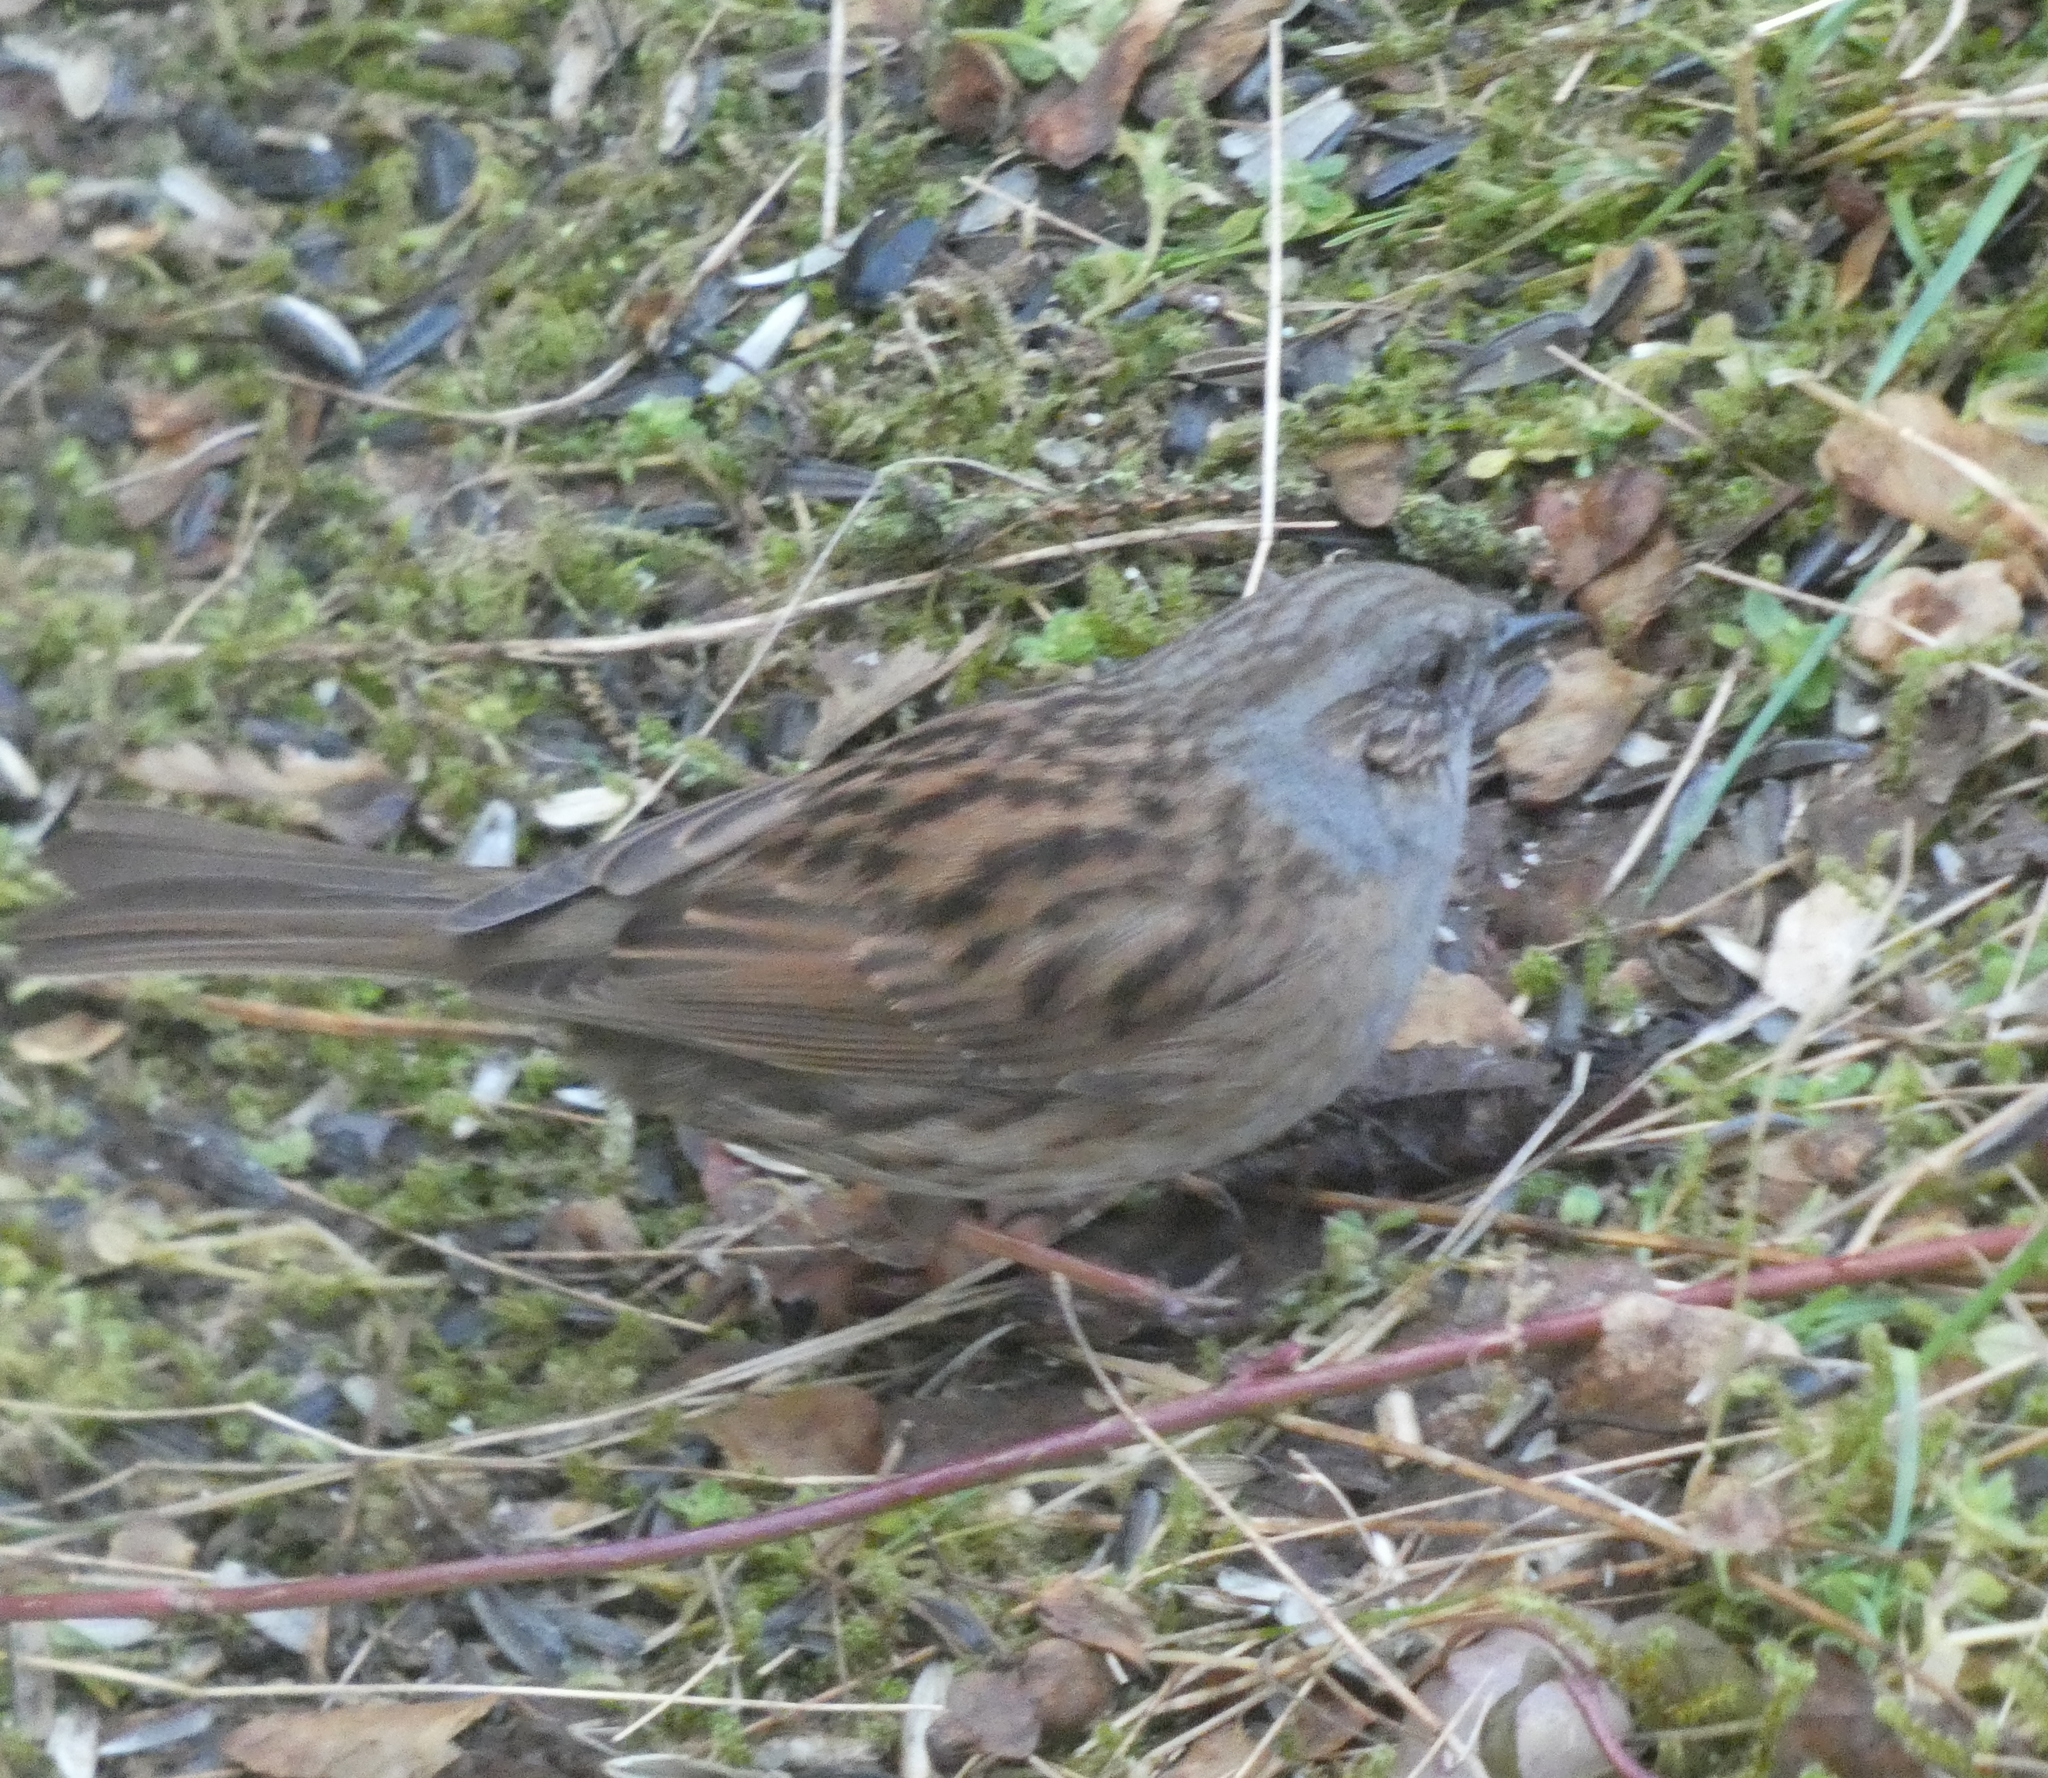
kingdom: Animalia
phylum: Chordata
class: Aves
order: Passeriformes
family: Prunellidae
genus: Prunella
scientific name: Prunella modularis
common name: Dunnock
